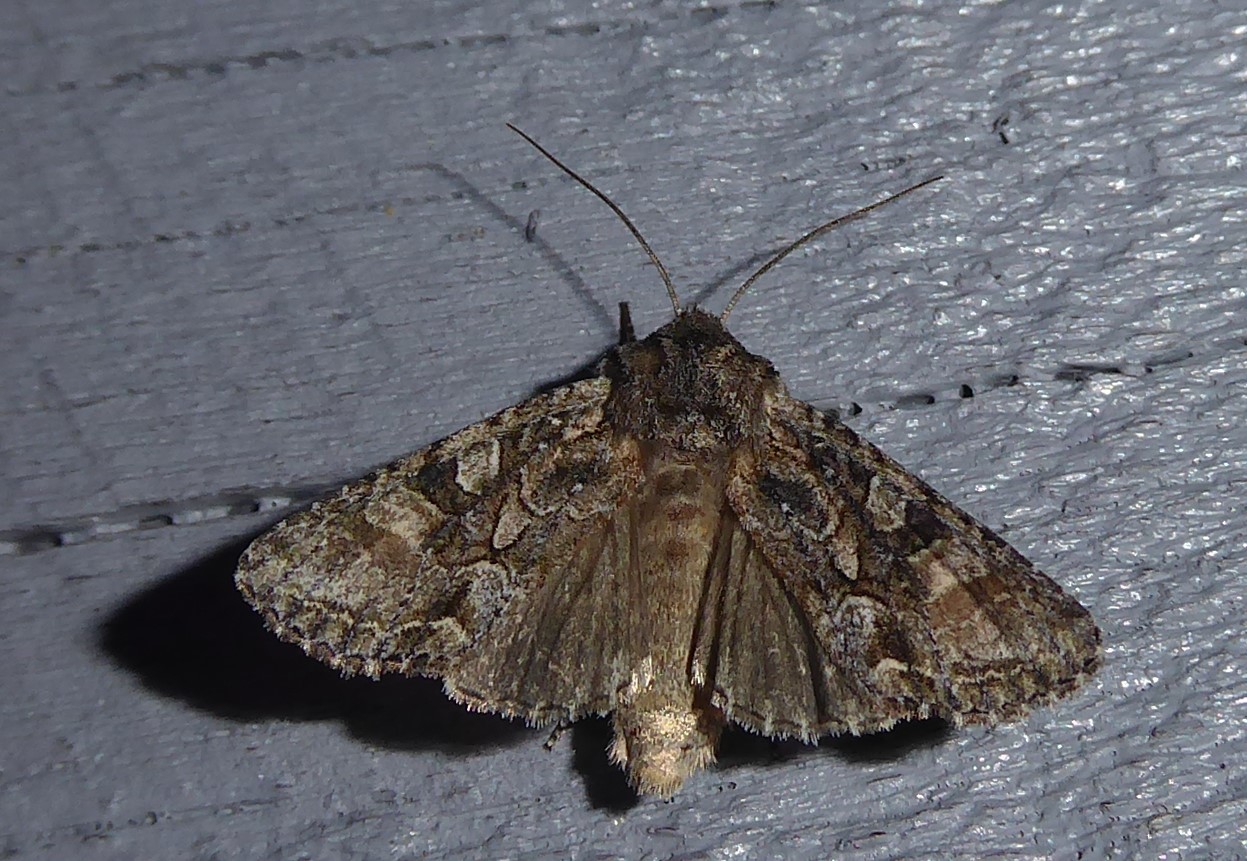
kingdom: Animalia
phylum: Arthropoda
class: Insecta
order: Lepidoptera
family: Noctuidae
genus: Ichneutica
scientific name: Ichneutica mutans
